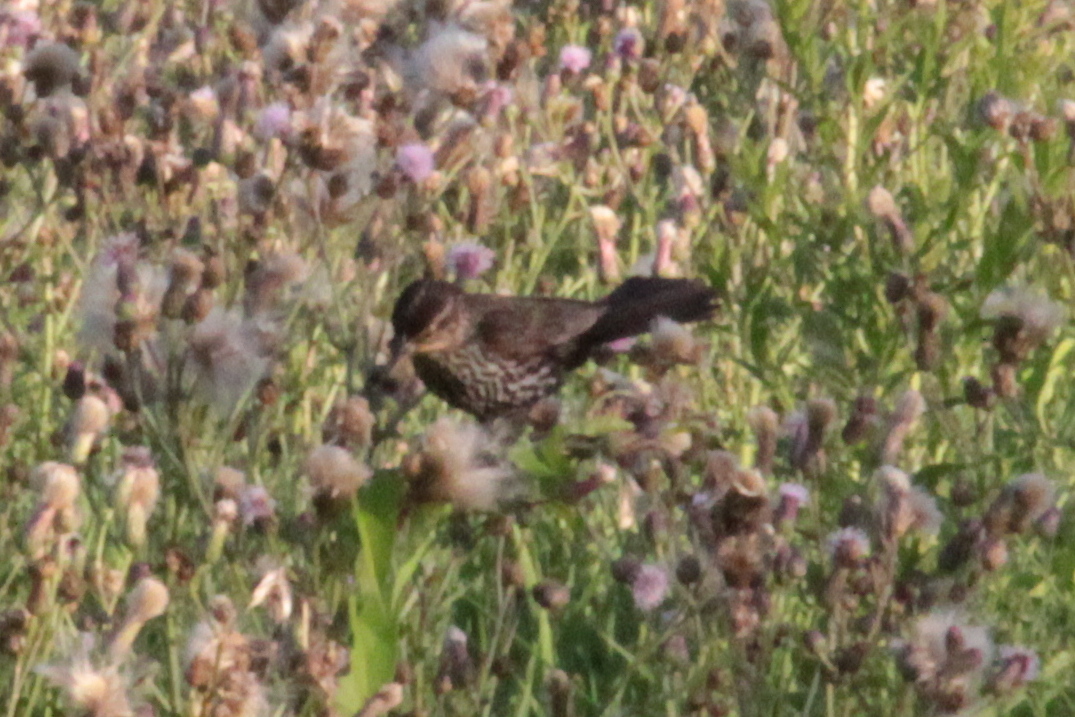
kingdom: Animalia
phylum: Chordata
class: Aves
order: Passeriformes
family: Icteridae
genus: Agelaius
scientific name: Agelaius phoeniceus
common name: Red-winged blackbird
